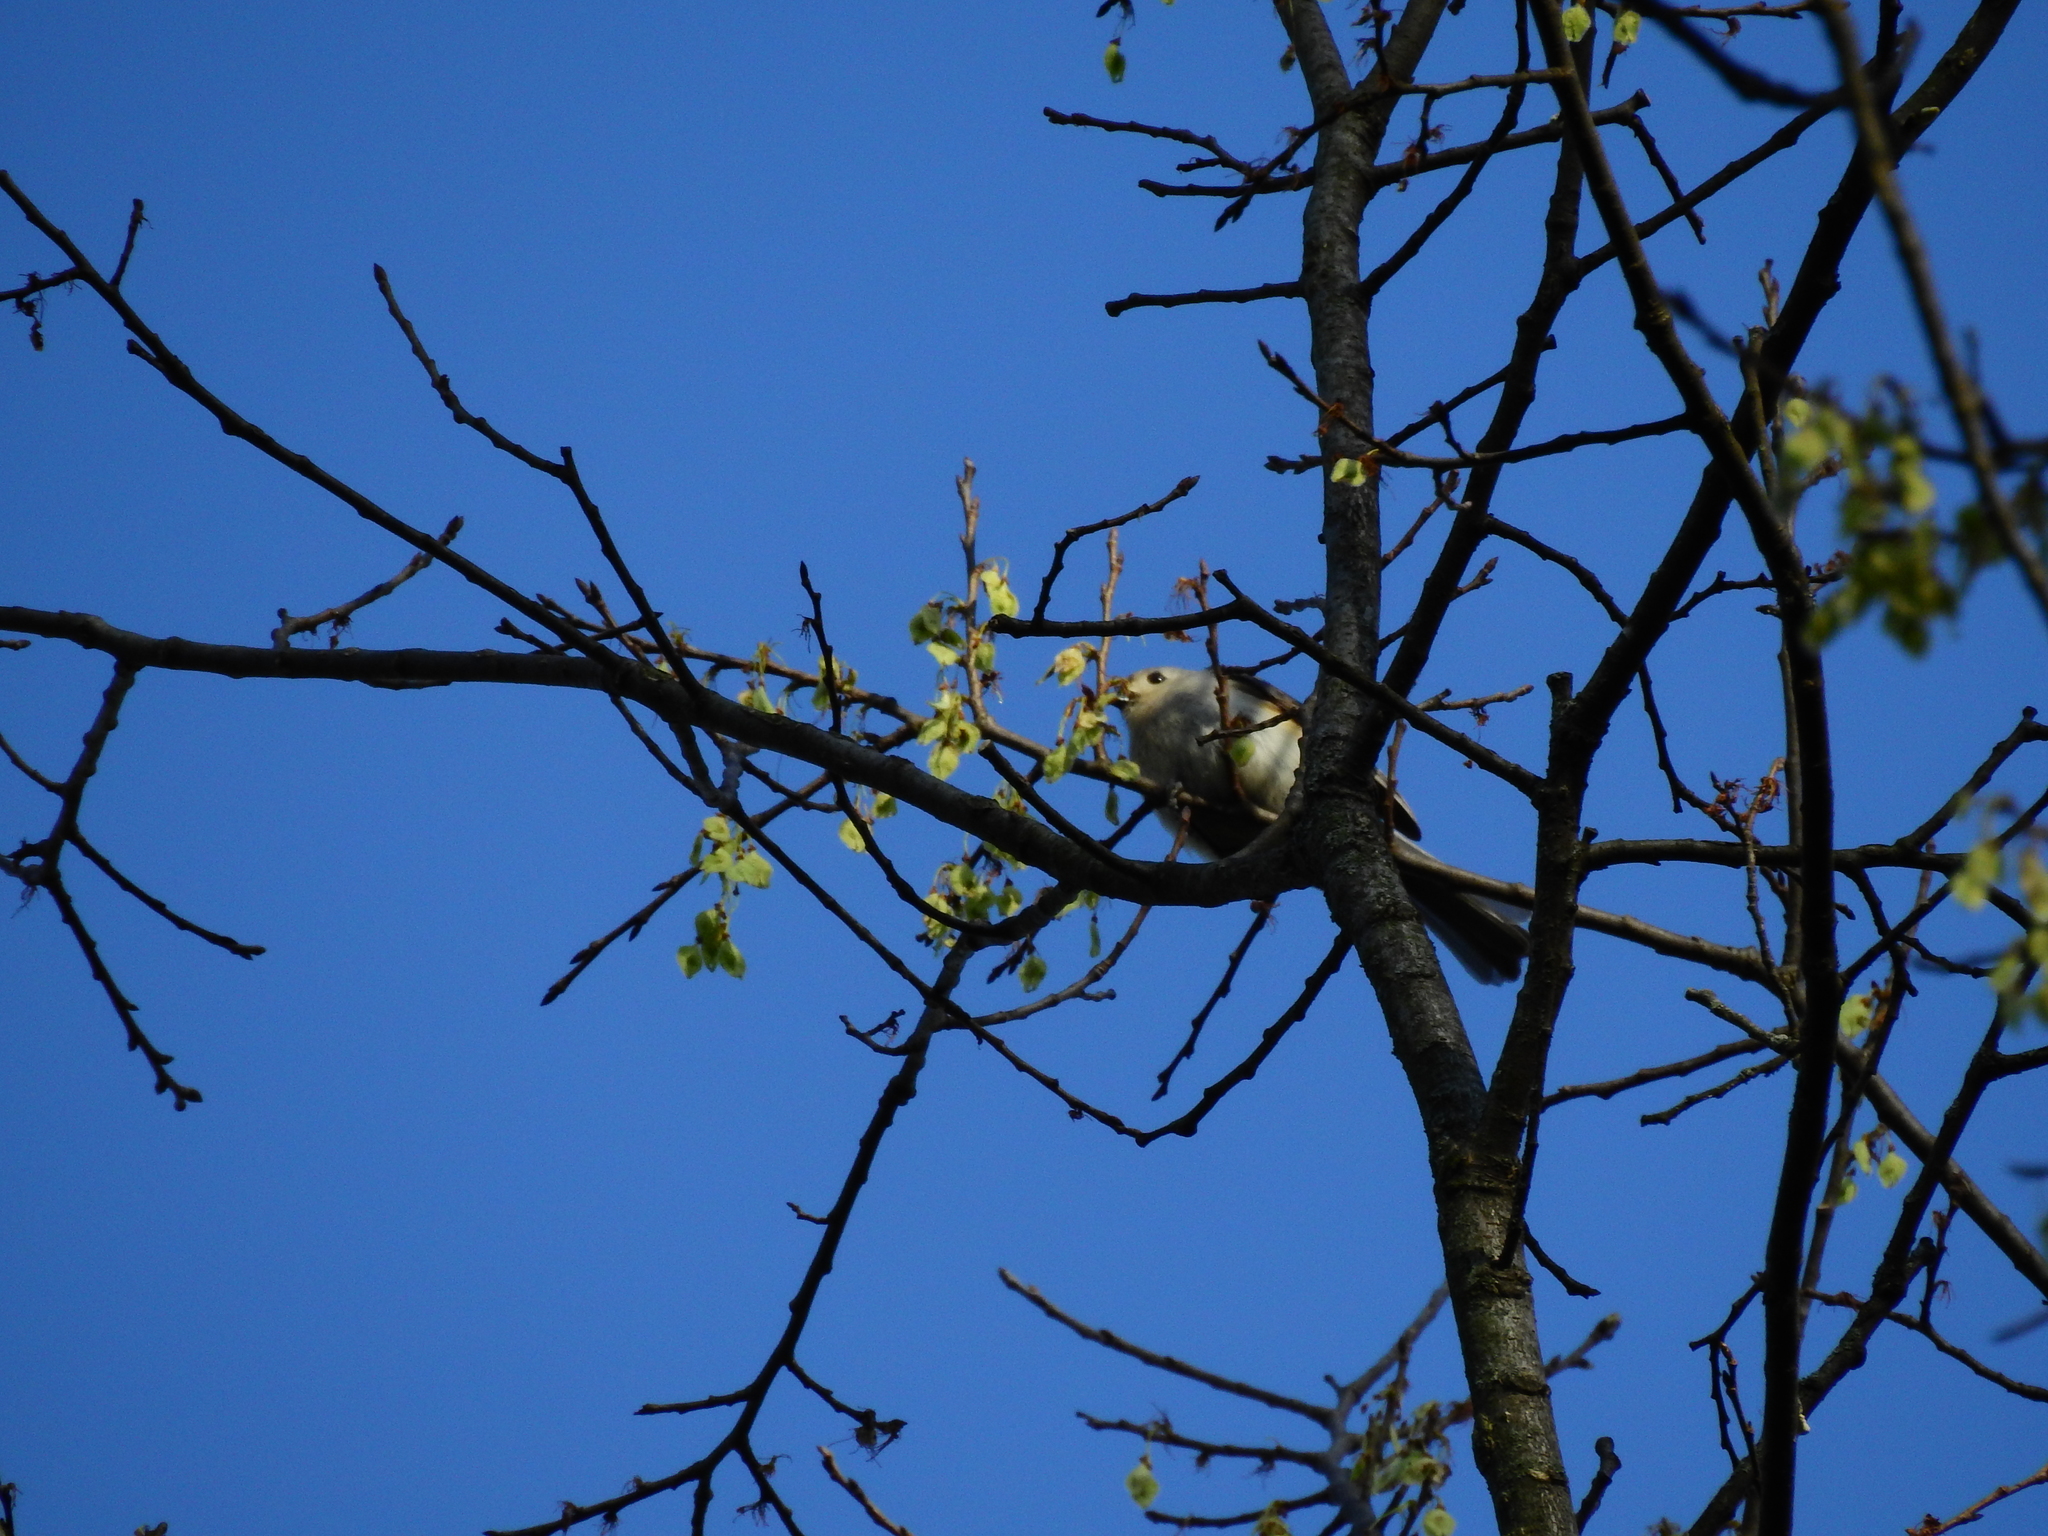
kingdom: Animalia
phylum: Chordata
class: Aves
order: Passeriformes
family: Paridae
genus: Baeolophus
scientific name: Baeolophus bicolor
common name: Tufted titmouse
